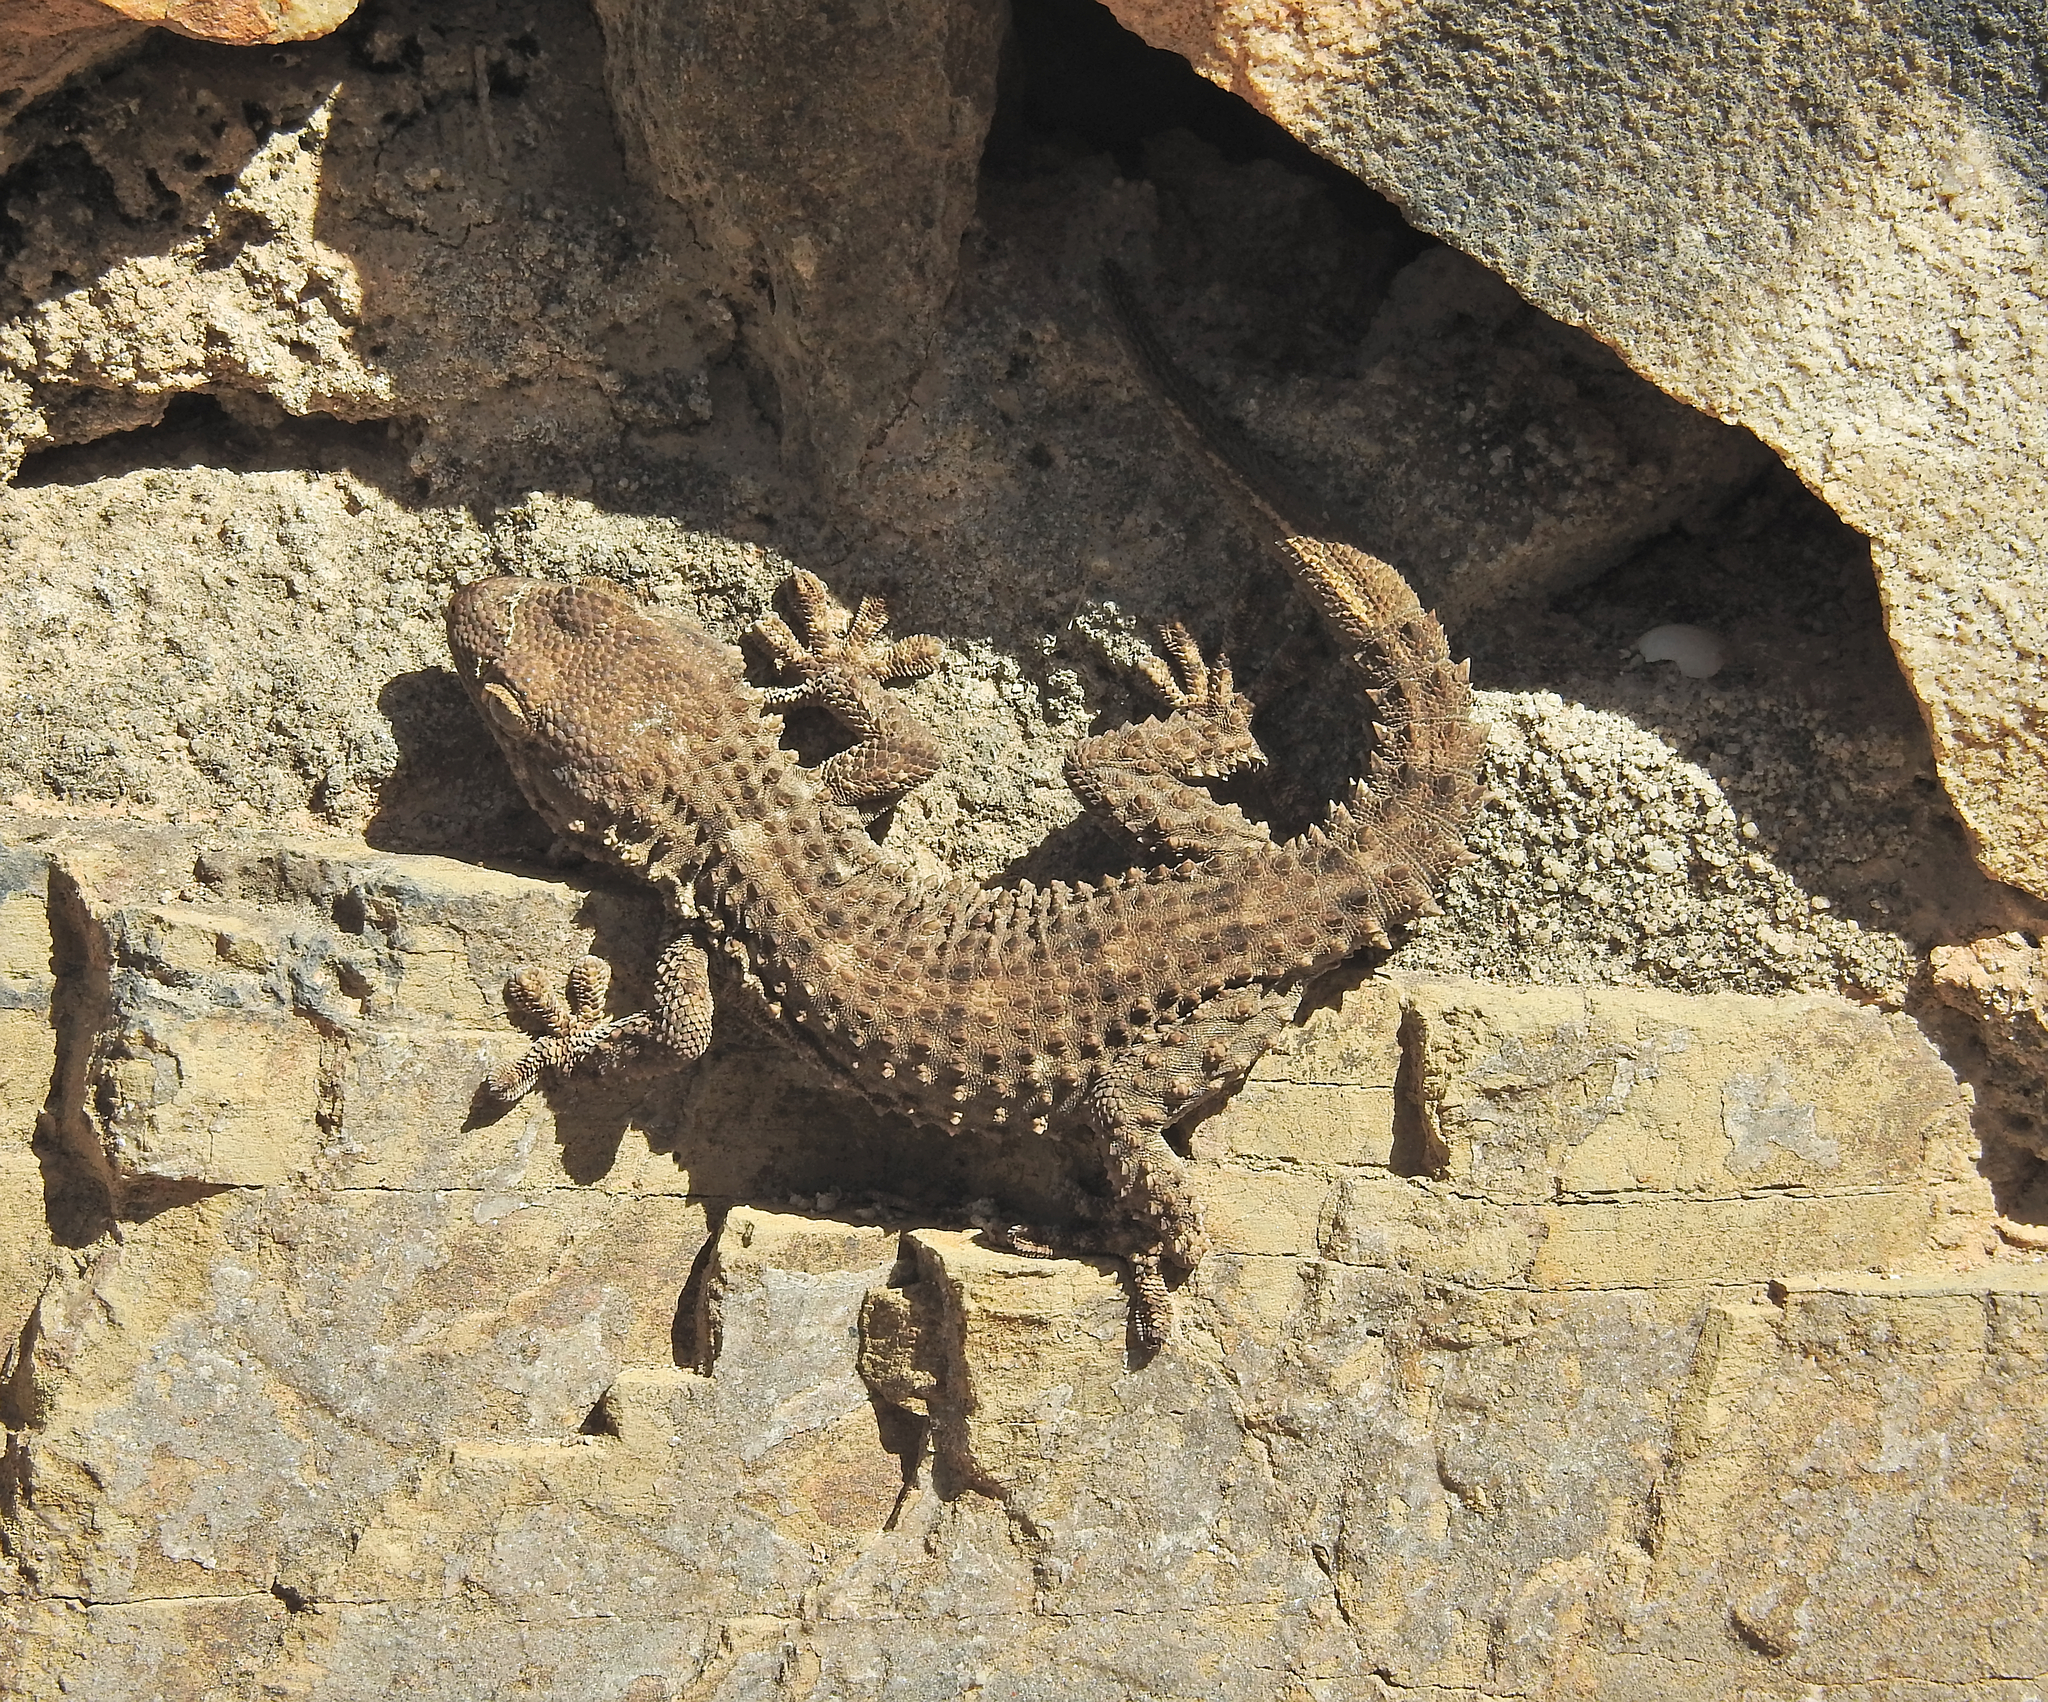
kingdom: Animalia
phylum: Chordata
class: Squamata
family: Phyllodactylidae
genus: Tarentola
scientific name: Tarentola mauritanica
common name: Moorish gecko
